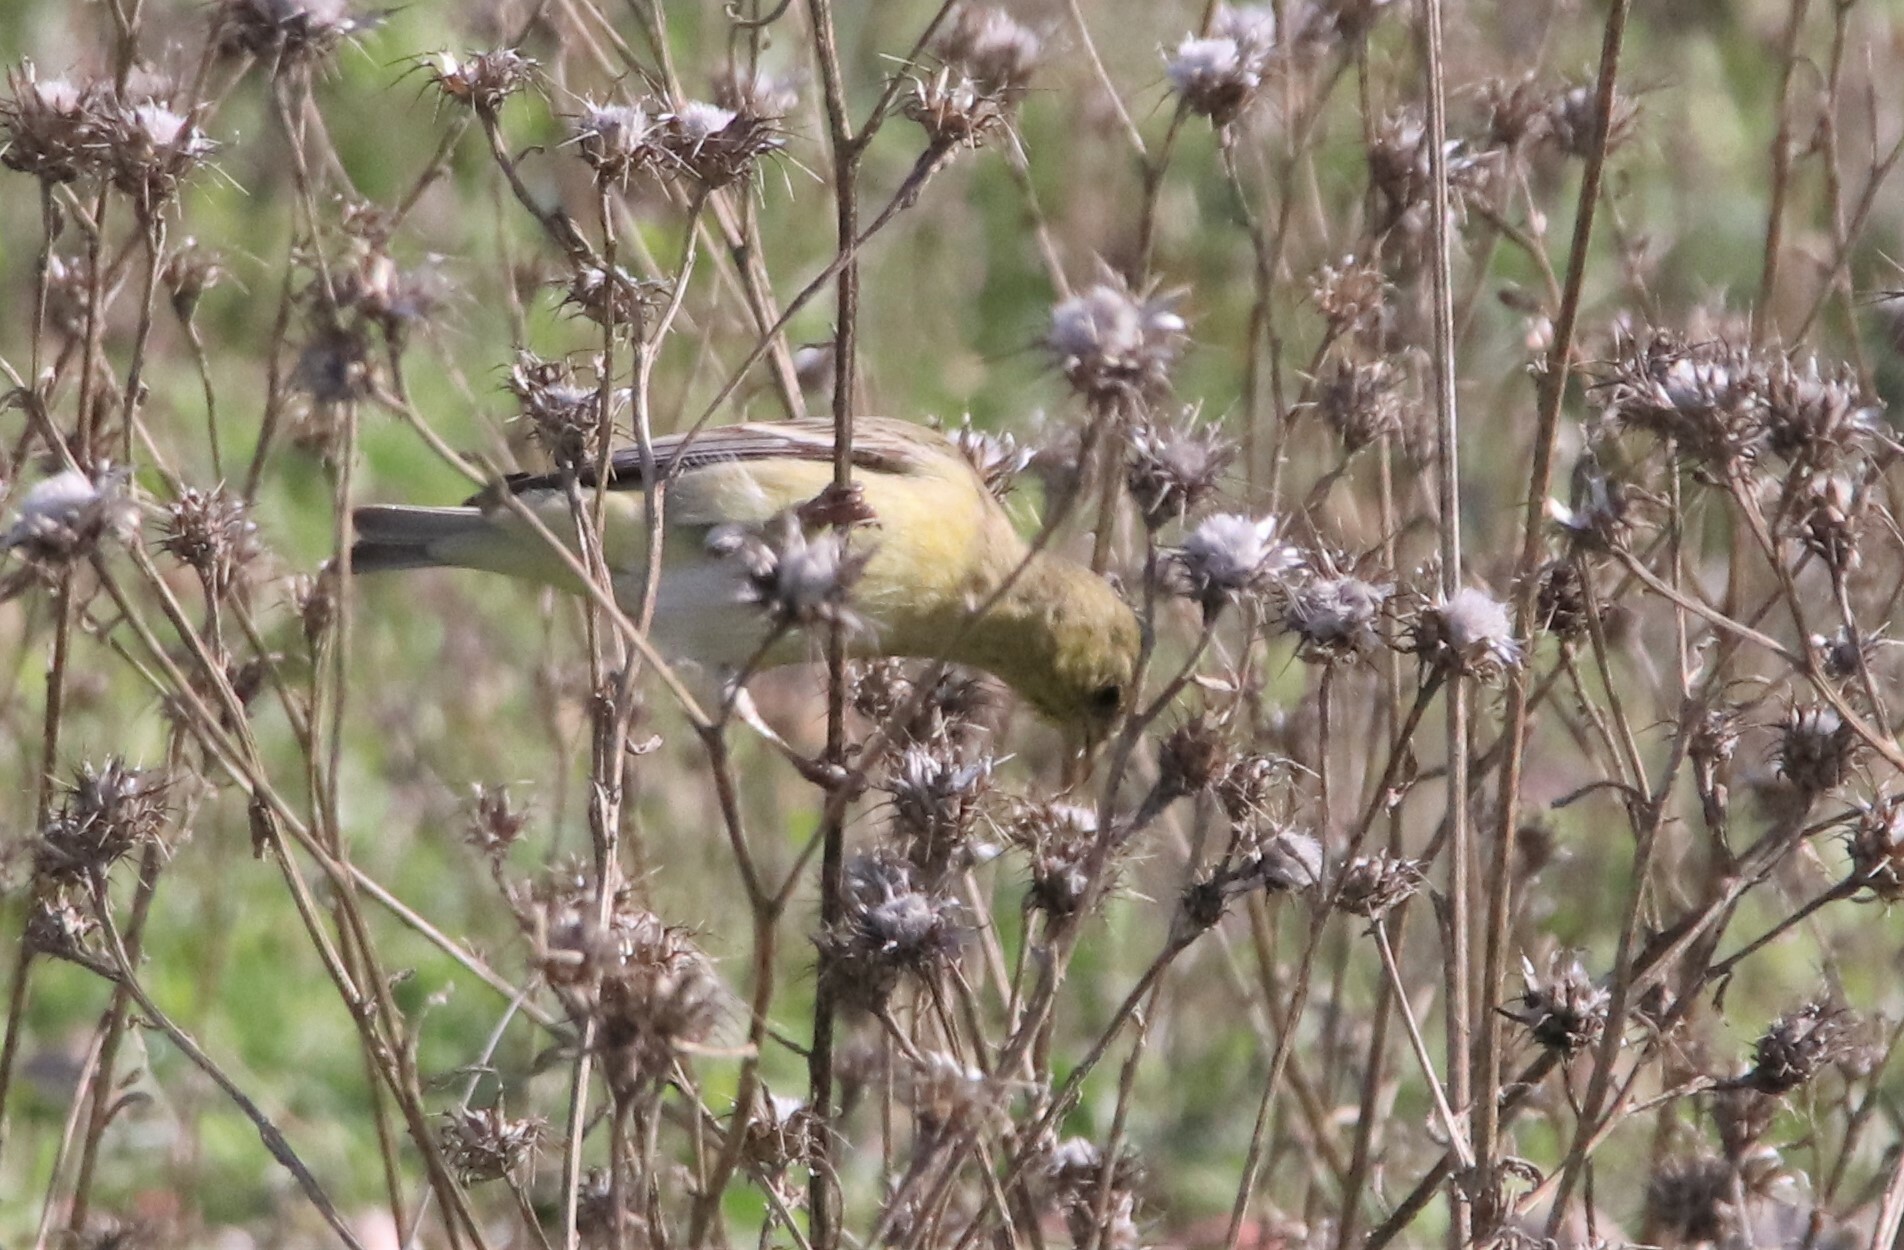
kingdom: Animalia
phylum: Chordata
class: Aves
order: Passeriformes
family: Fringillidae
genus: Spinus
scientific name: Spinus psaltria
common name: Lesser goldfinch
